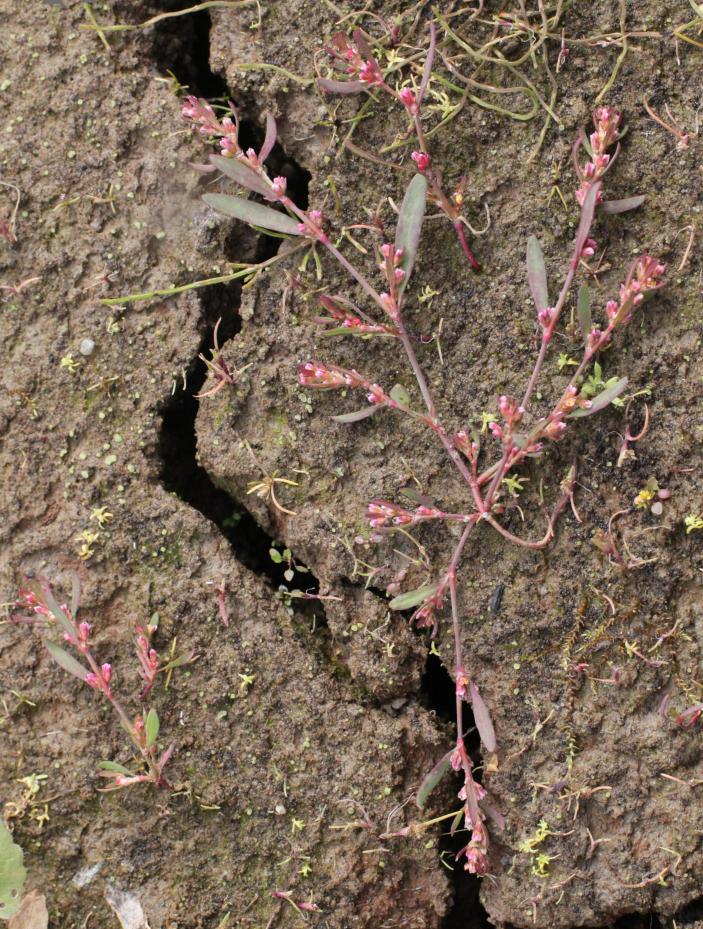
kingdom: Plantae
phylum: Tracheophyta
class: Magnoliopsida
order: Caryophyllales
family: Polygonaceae
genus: Polygonum
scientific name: Polygonum volchovense
